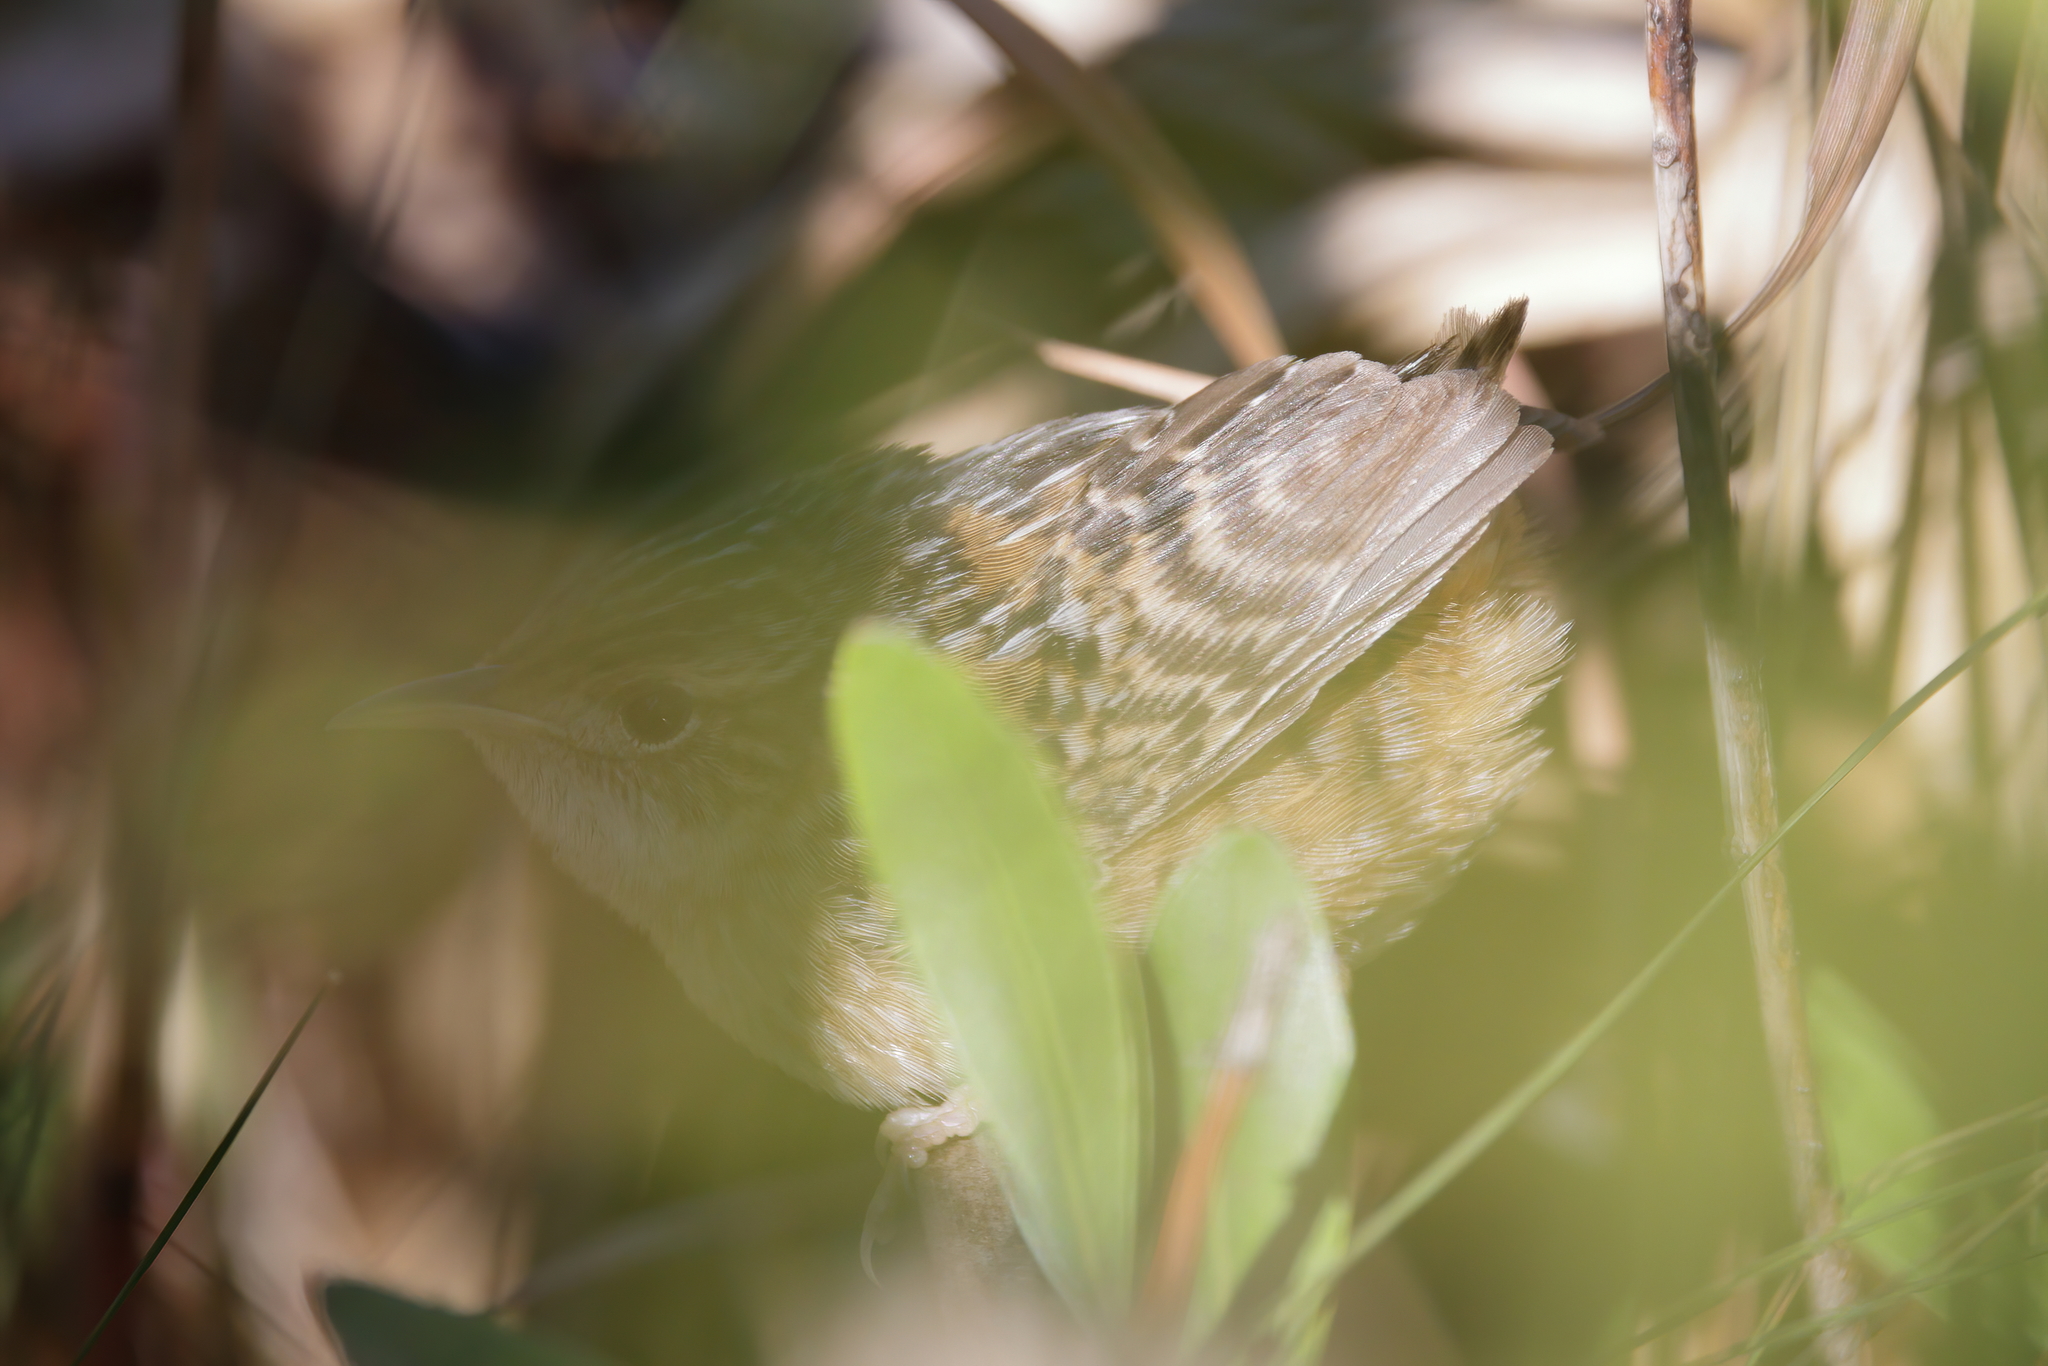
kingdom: Animalia
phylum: Chordata
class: Aves
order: Passeriformes
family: Troglodytidae
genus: Cistothorus
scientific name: Cistothorus platensis
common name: Sedge wren
